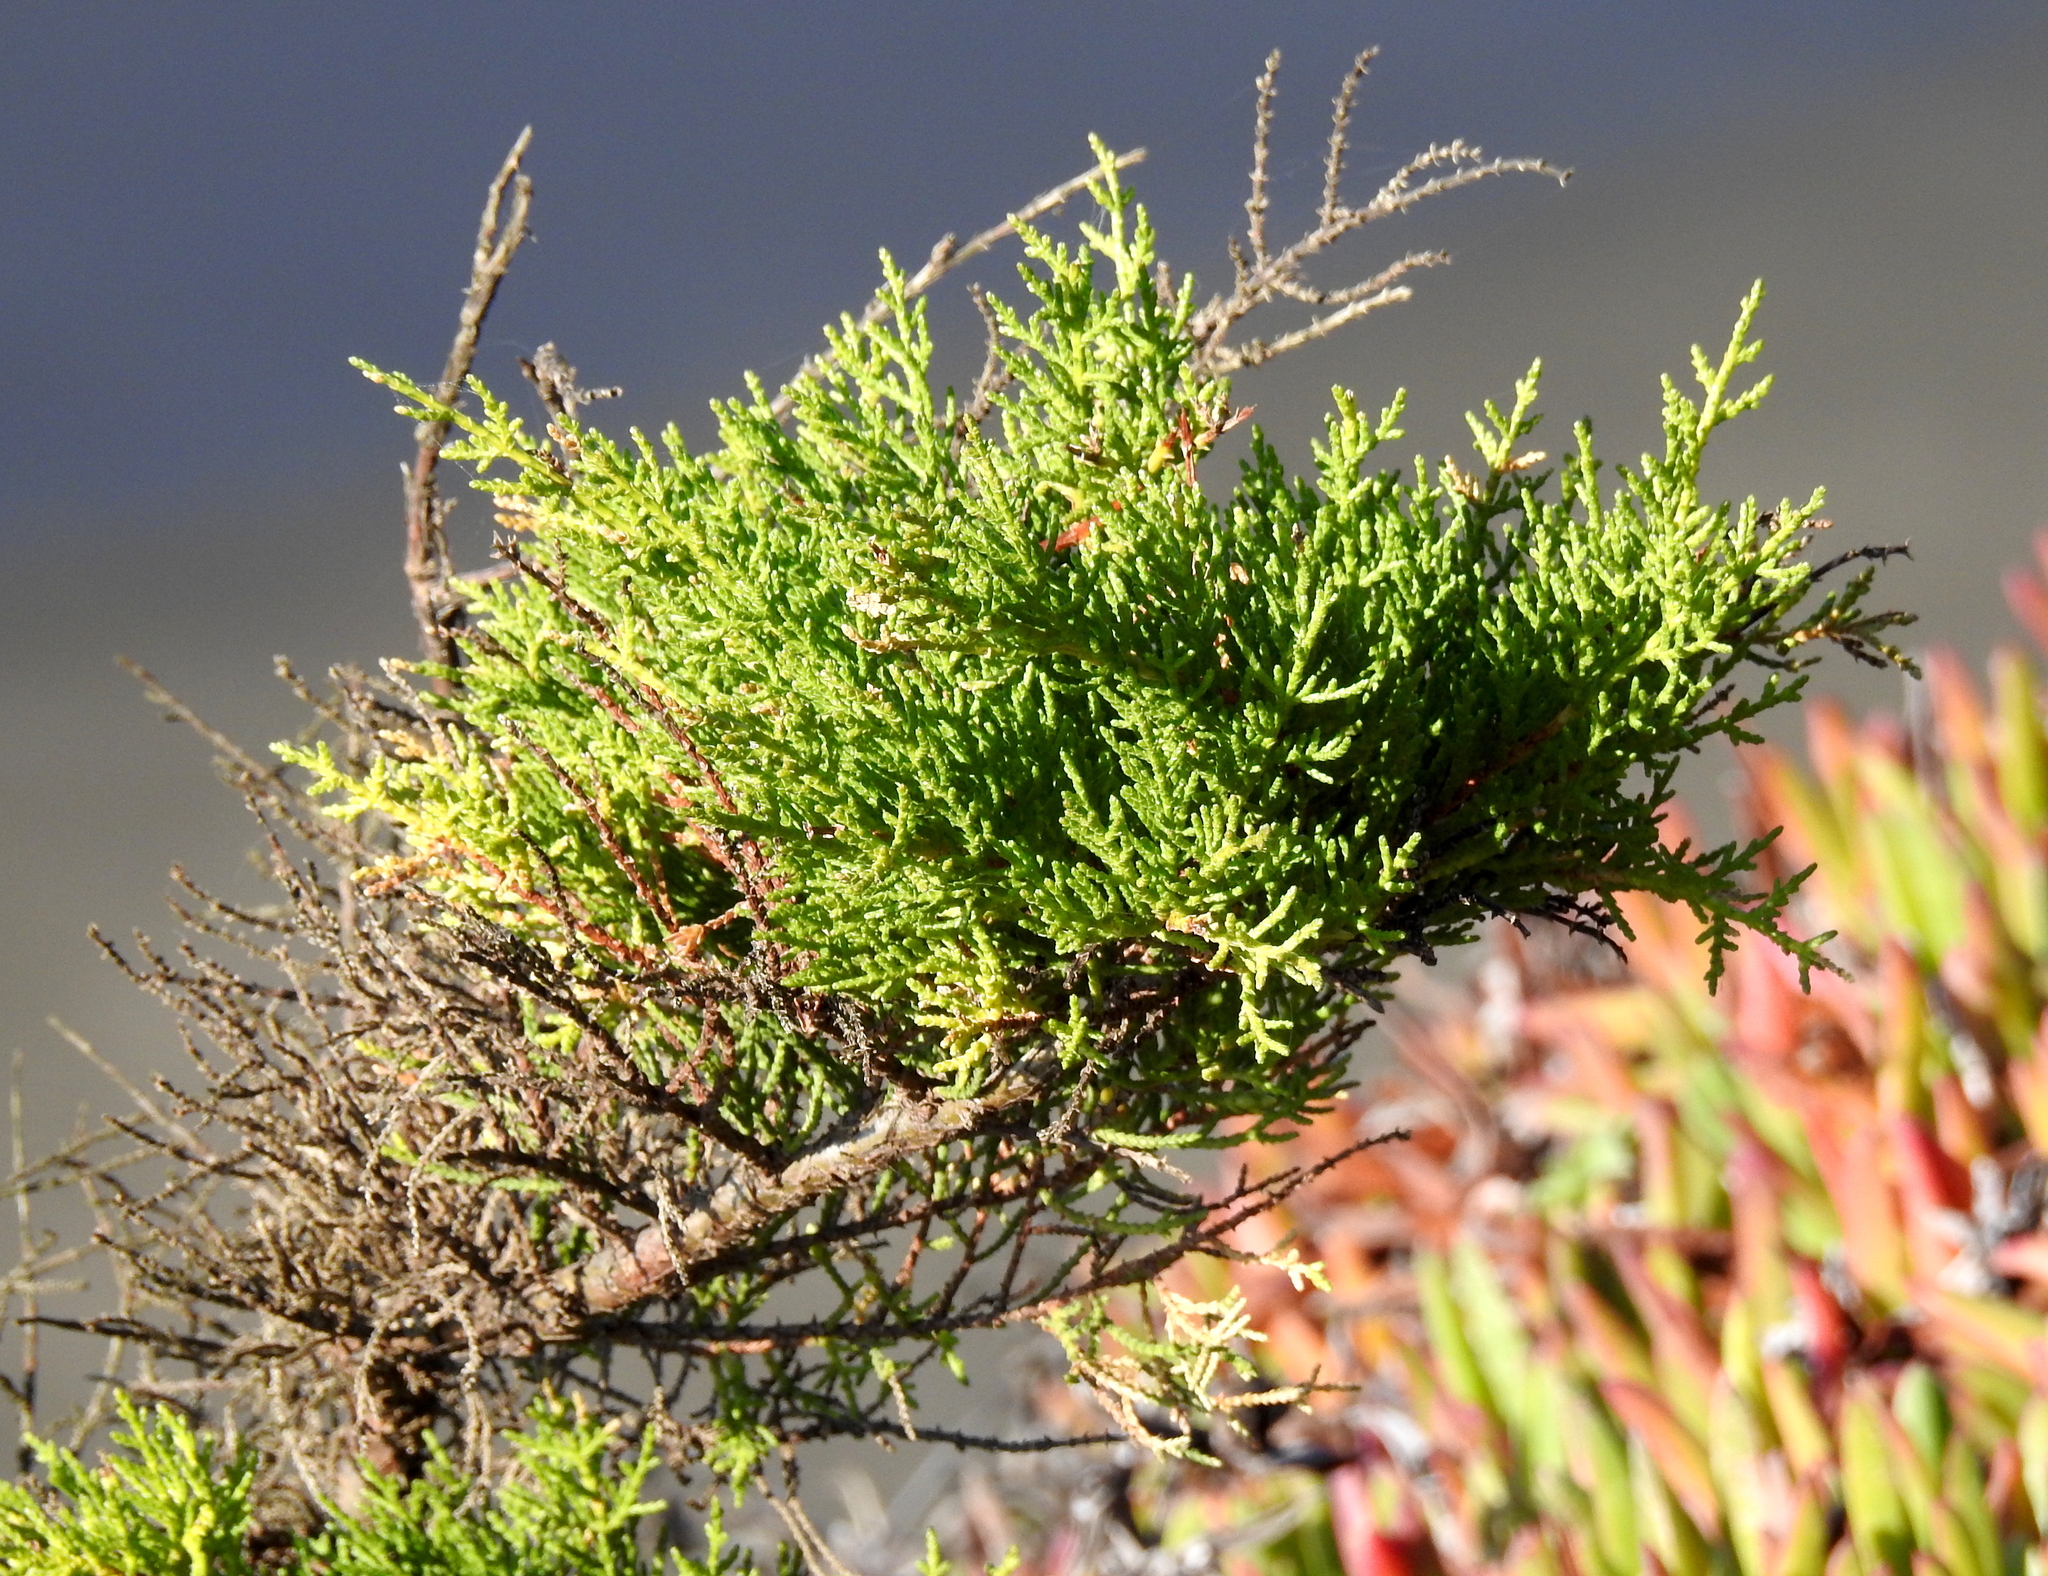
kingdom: Plantae
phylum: Tracheophyta
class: Pinopsida
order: Pinales
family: Cupressaceae
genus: Cupressus
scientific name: Cupressus macrocarpa
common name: Monterey cypress
